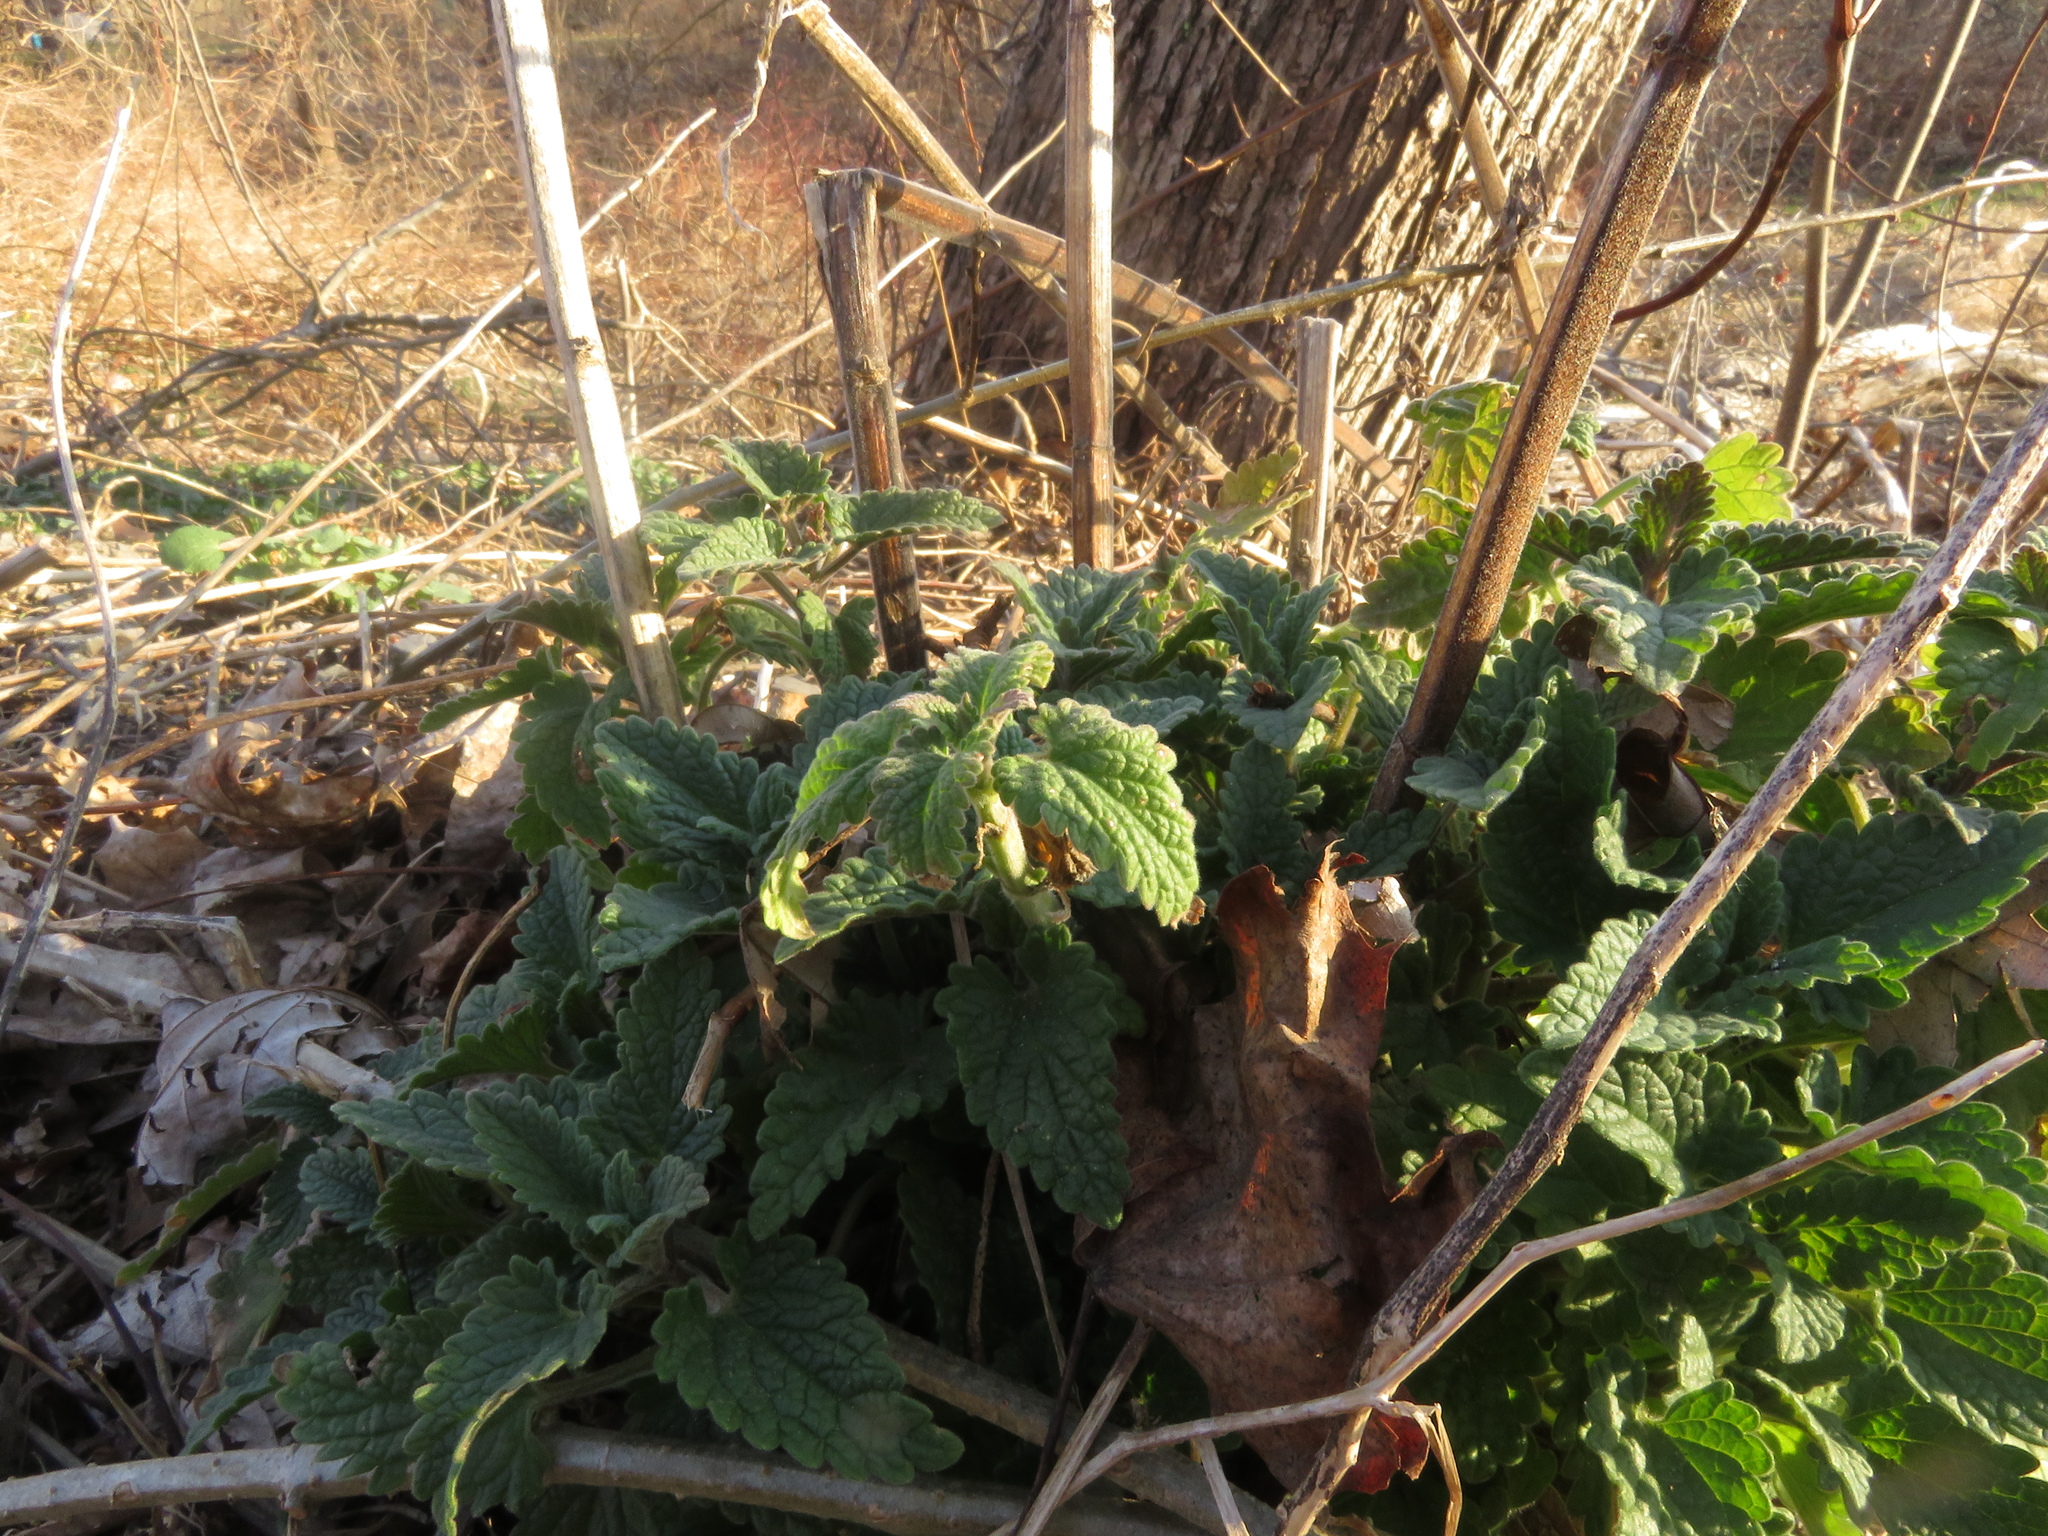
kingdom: Plantae
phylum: Tracheophyta
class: Magnoliopsida
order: Lamiales
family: Lamiaceae
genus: Nepeta
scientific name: Nepeta cataria
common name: Catnip
